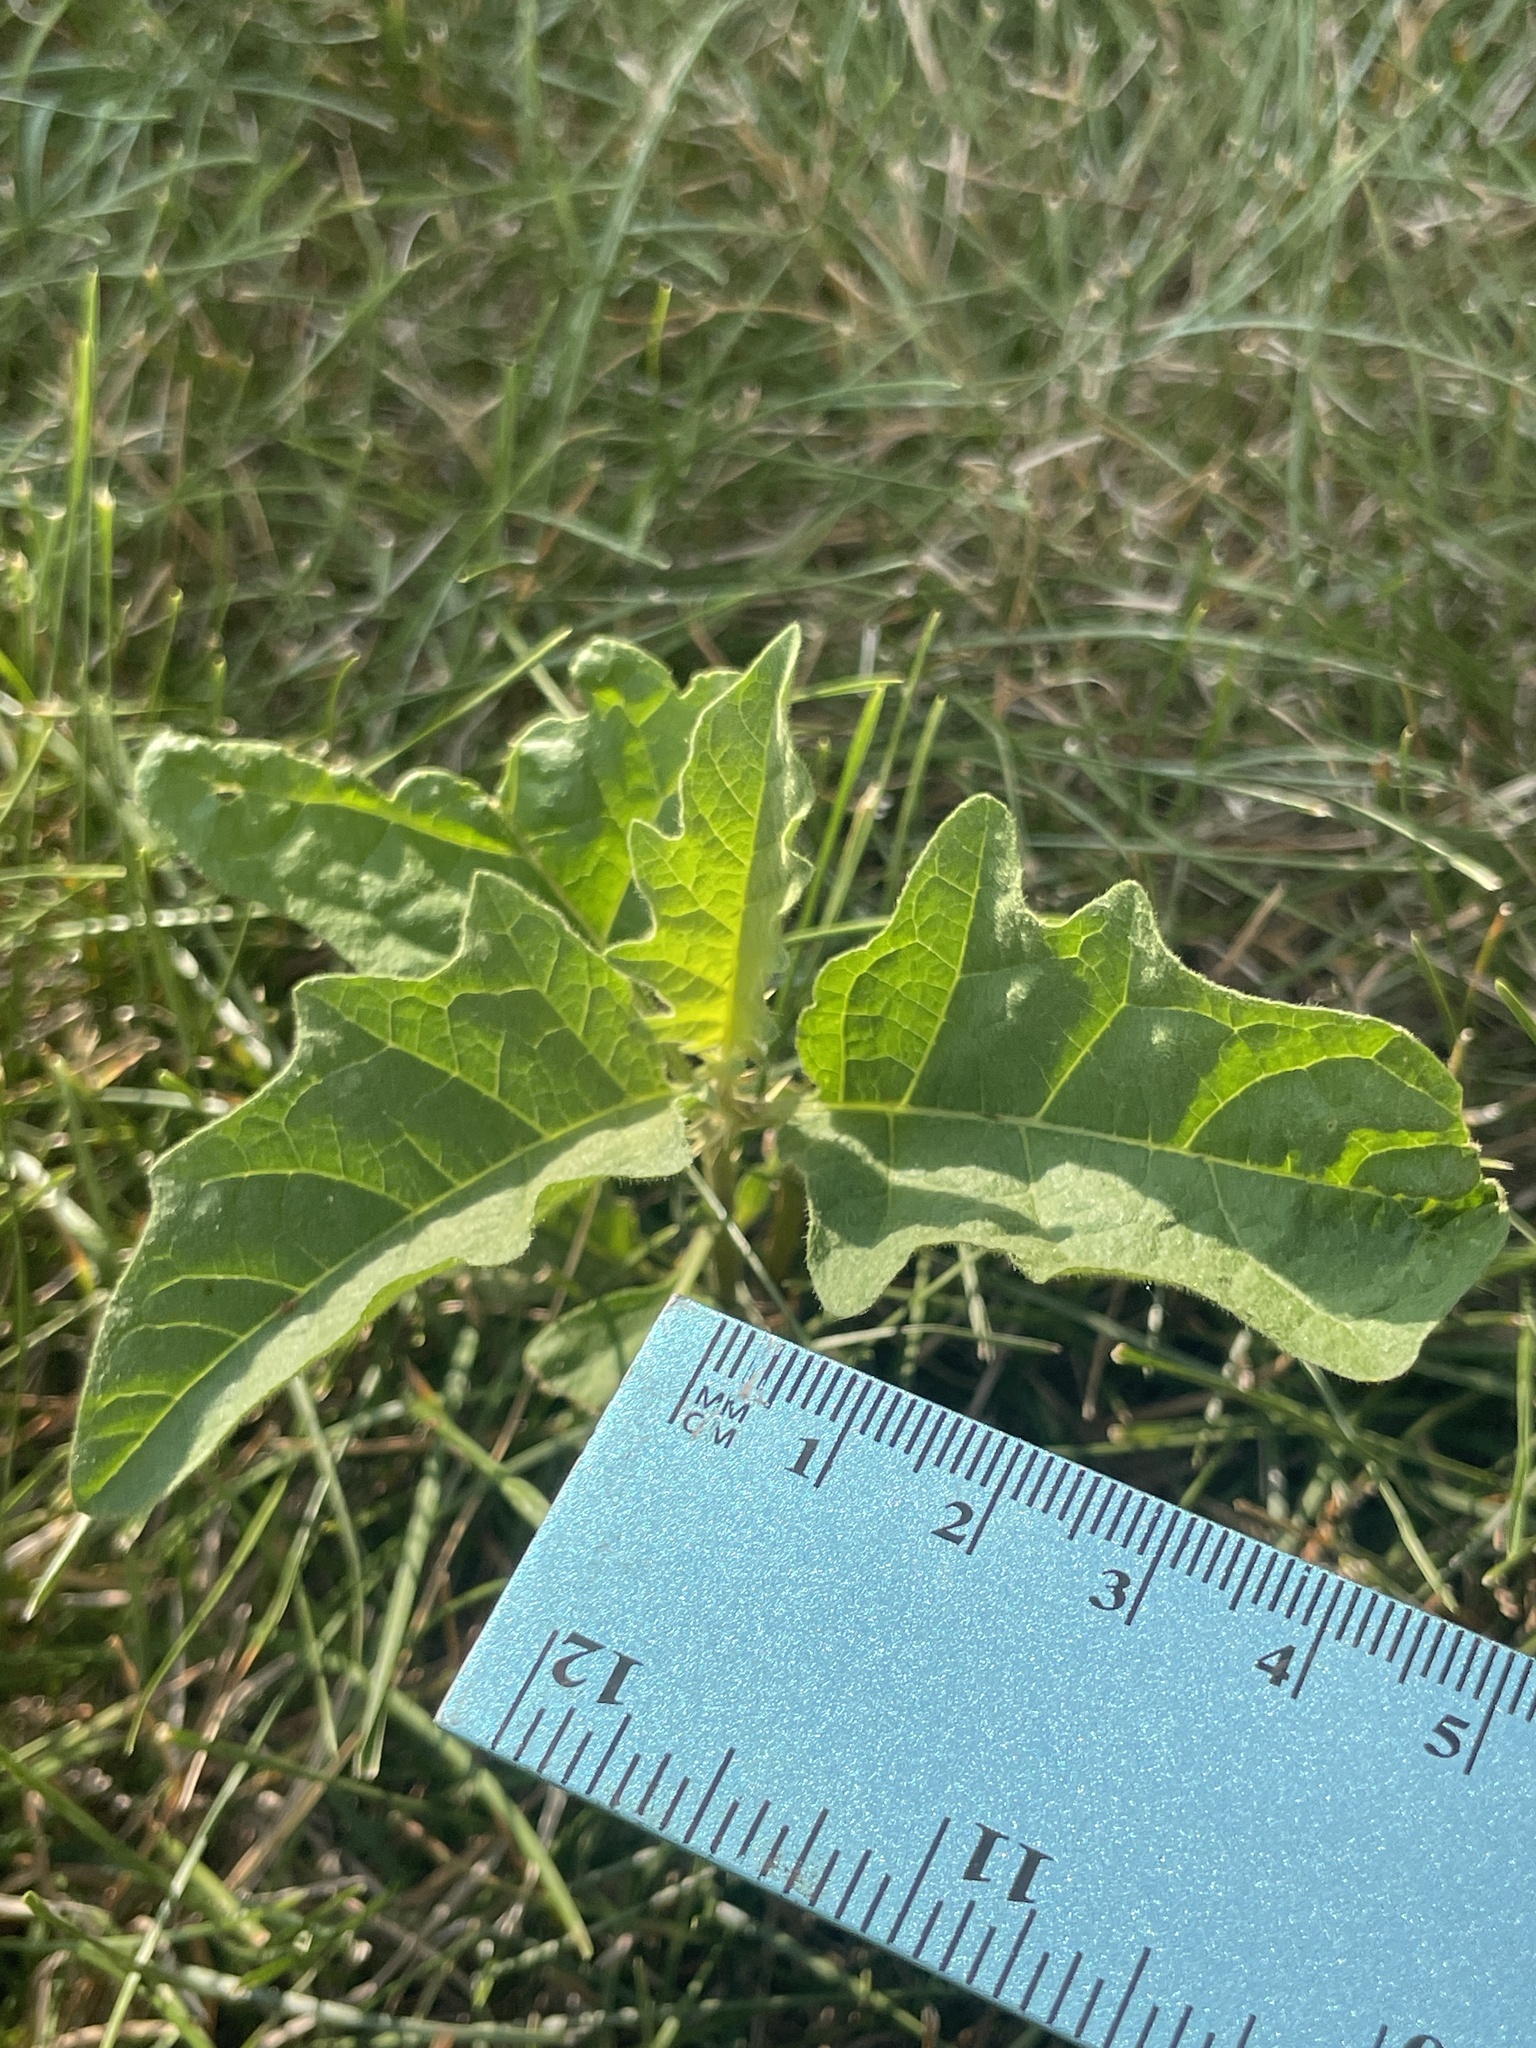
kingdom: Plantae
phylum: Tracheophyta
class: Magnoliopsida
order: Solanales
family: Solanaceae
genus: Solanum
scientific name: Solanum carolinense
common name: Horse-nettle
